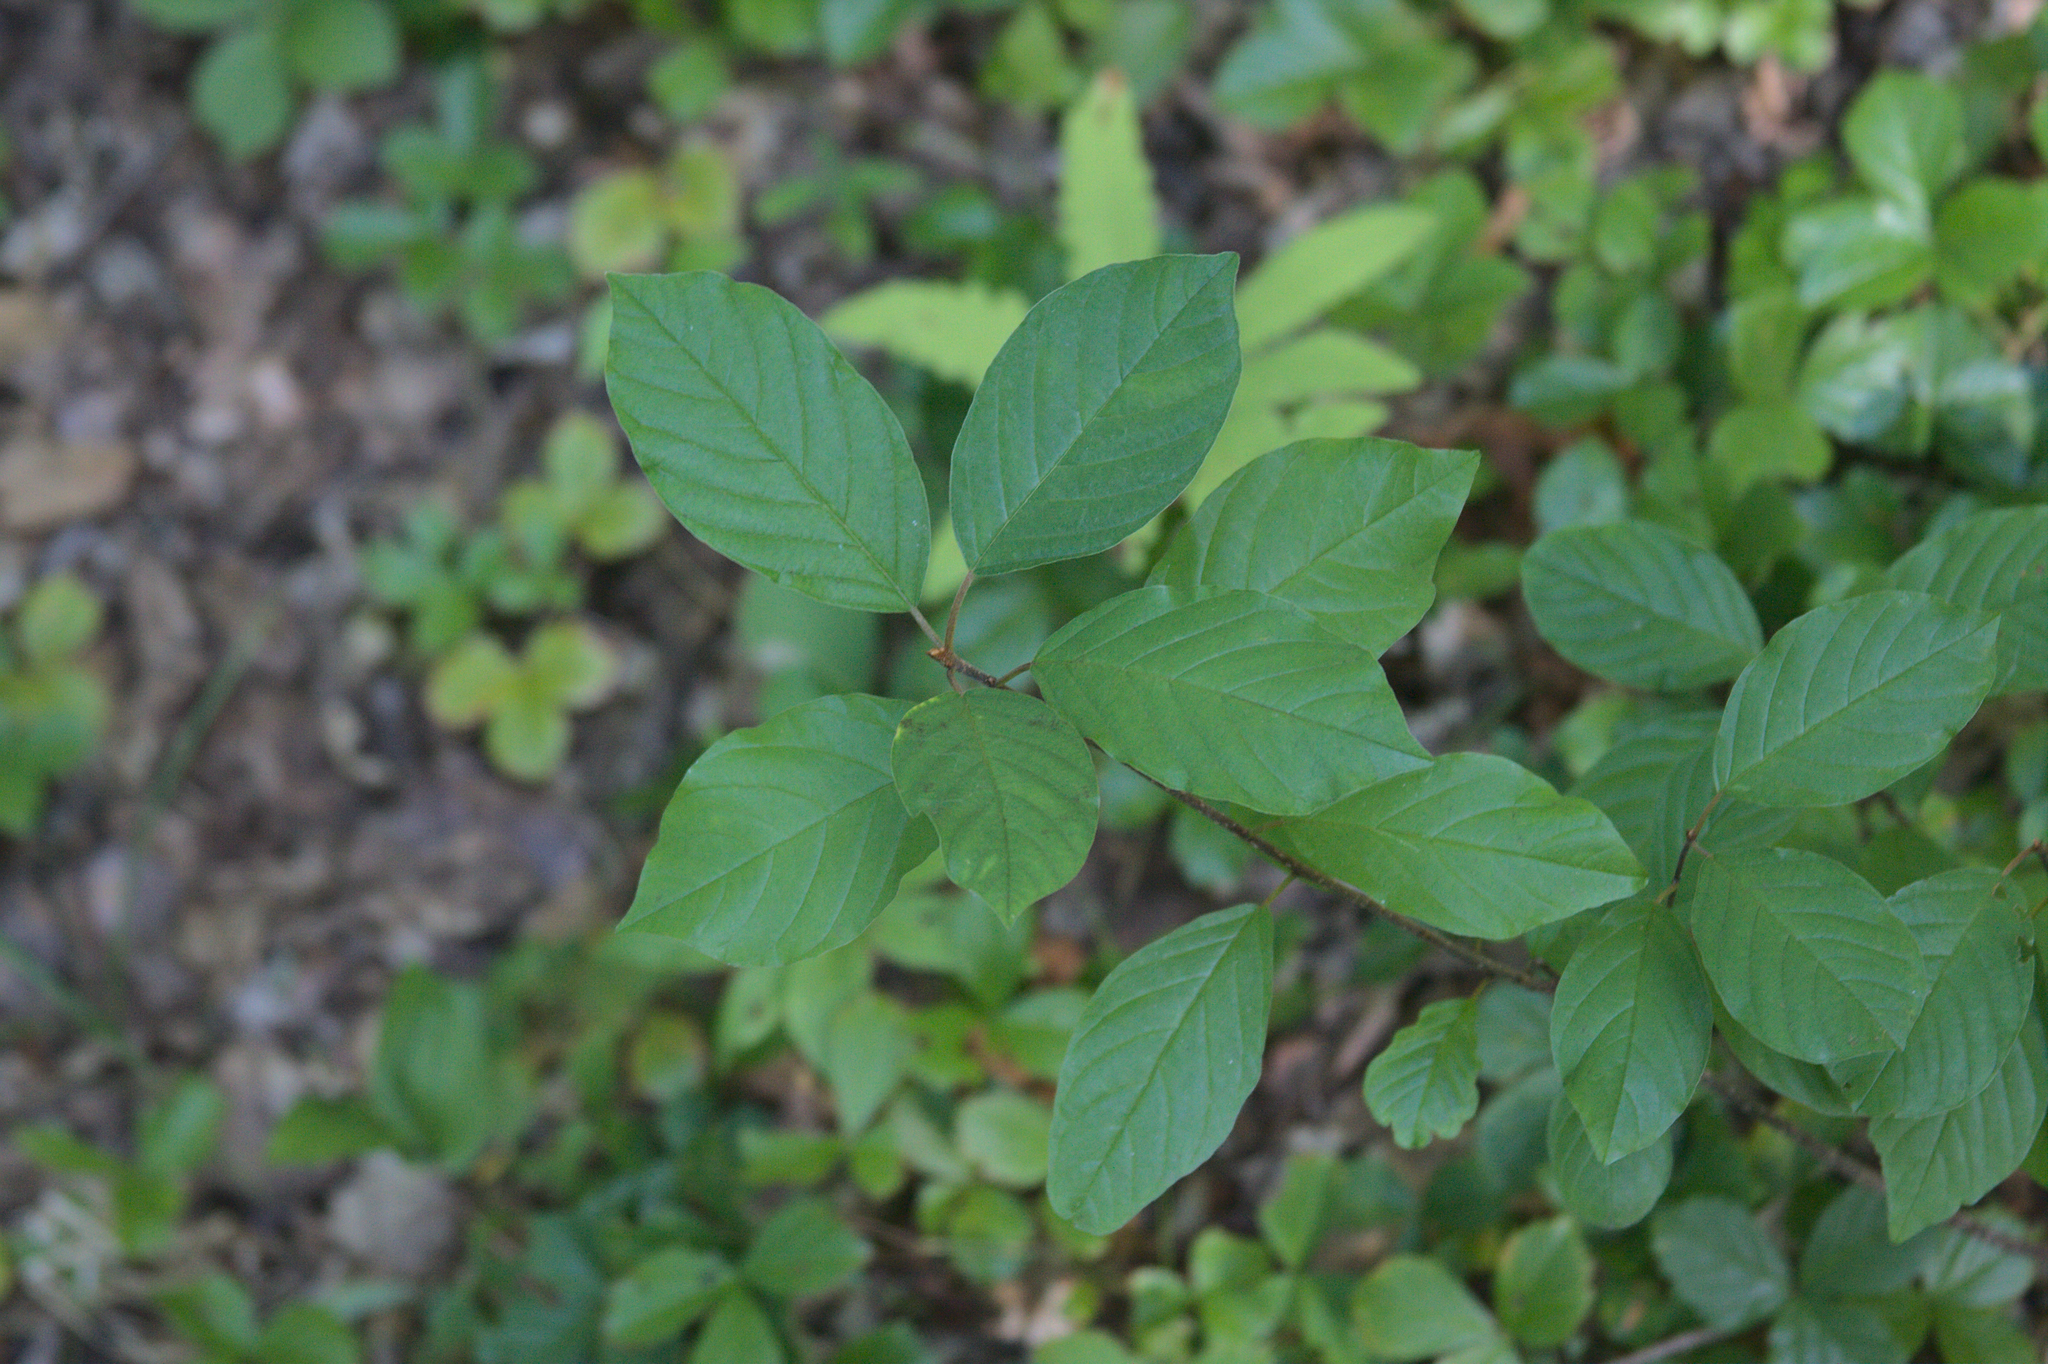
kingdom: Plantae
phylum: Tracheophyta
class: Magnoliopsida
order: Rosales
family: Rhamnaceae
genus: Frangula
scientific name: Frangula alnus
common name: Alder buckthorn
